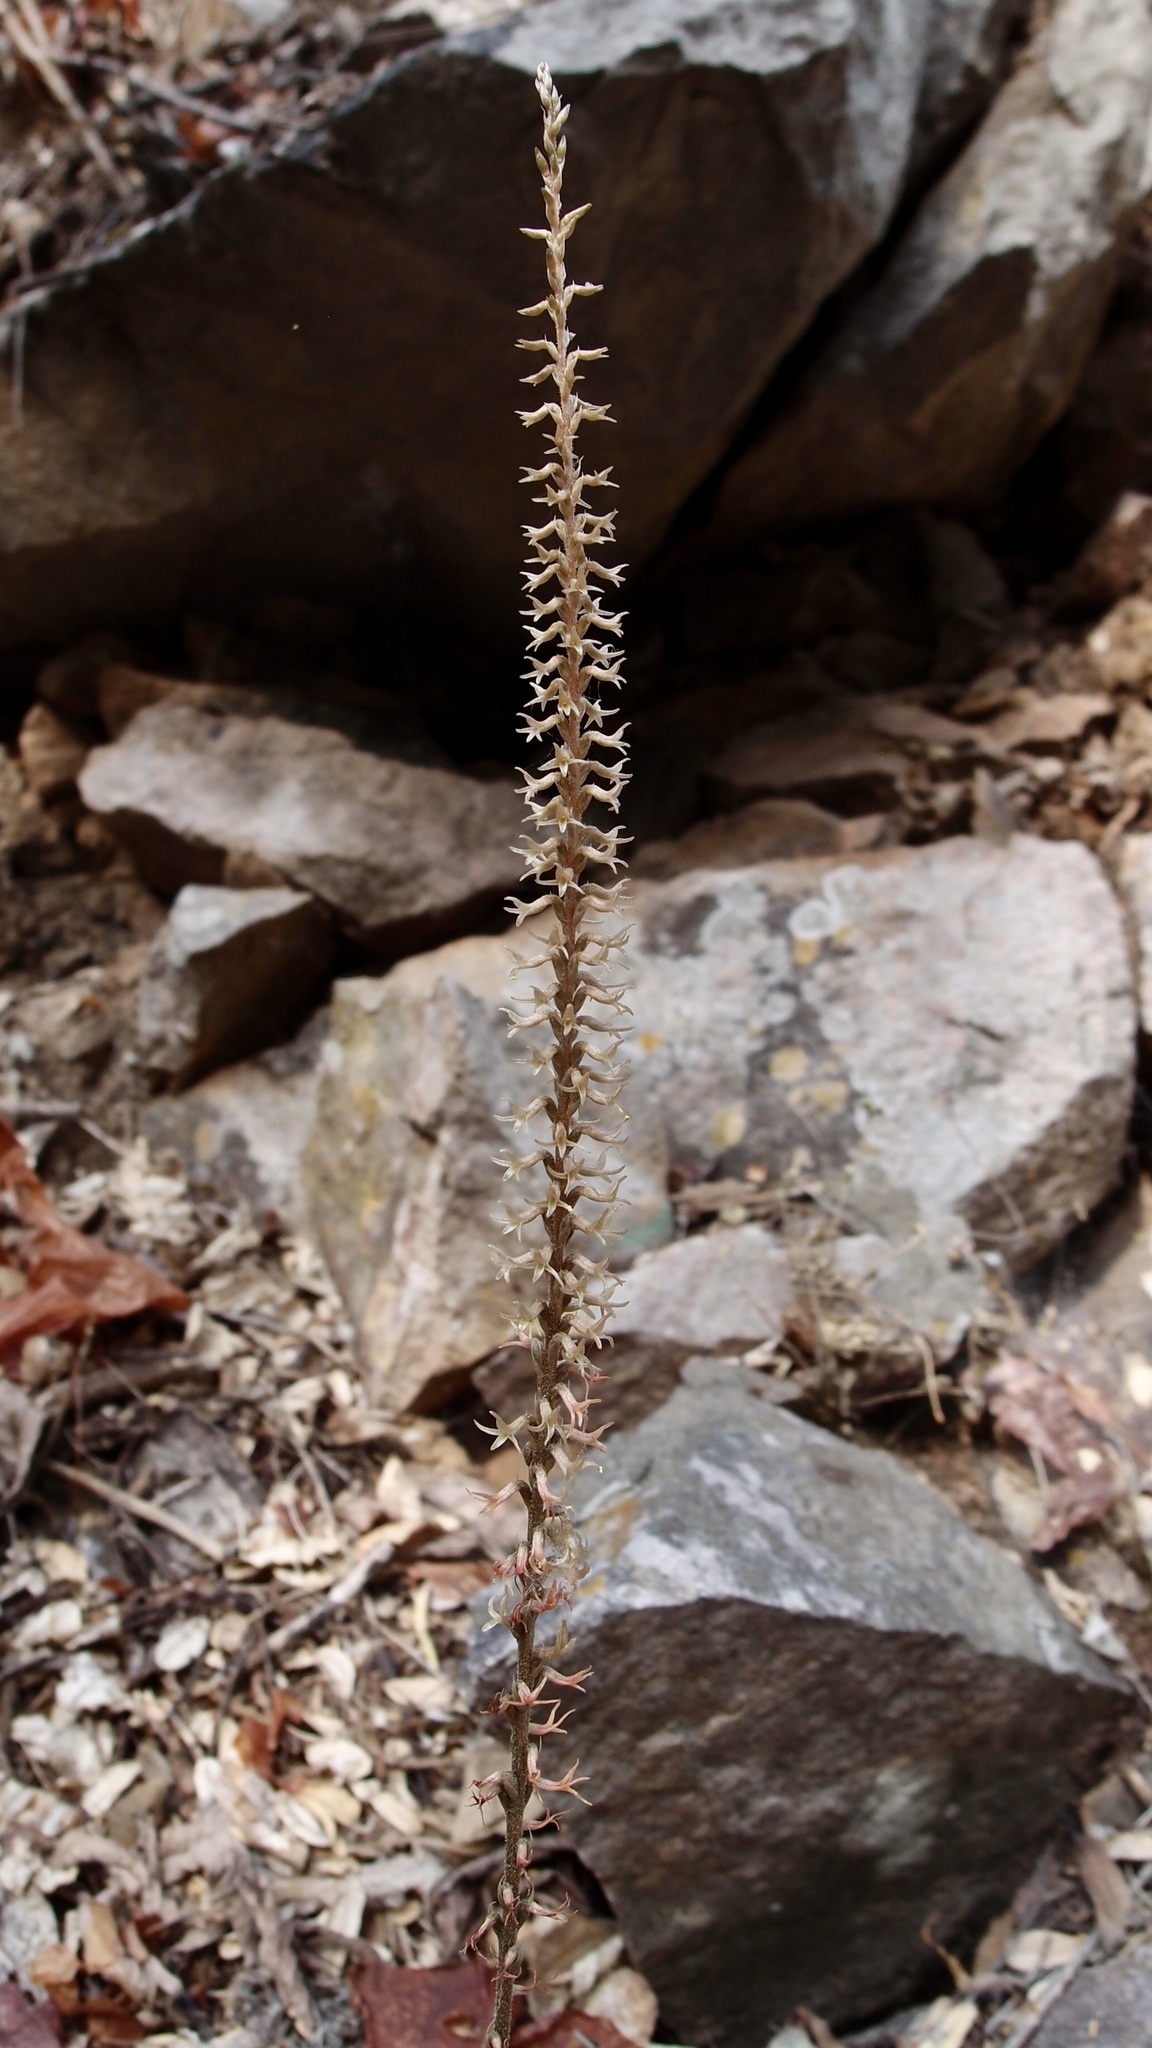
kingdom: Plantae
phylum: Tracheophyta
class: Liliopsida
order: Asparagales
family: Orchidaceae
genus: Mesadenus
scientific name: Mesadenus polyanthus
